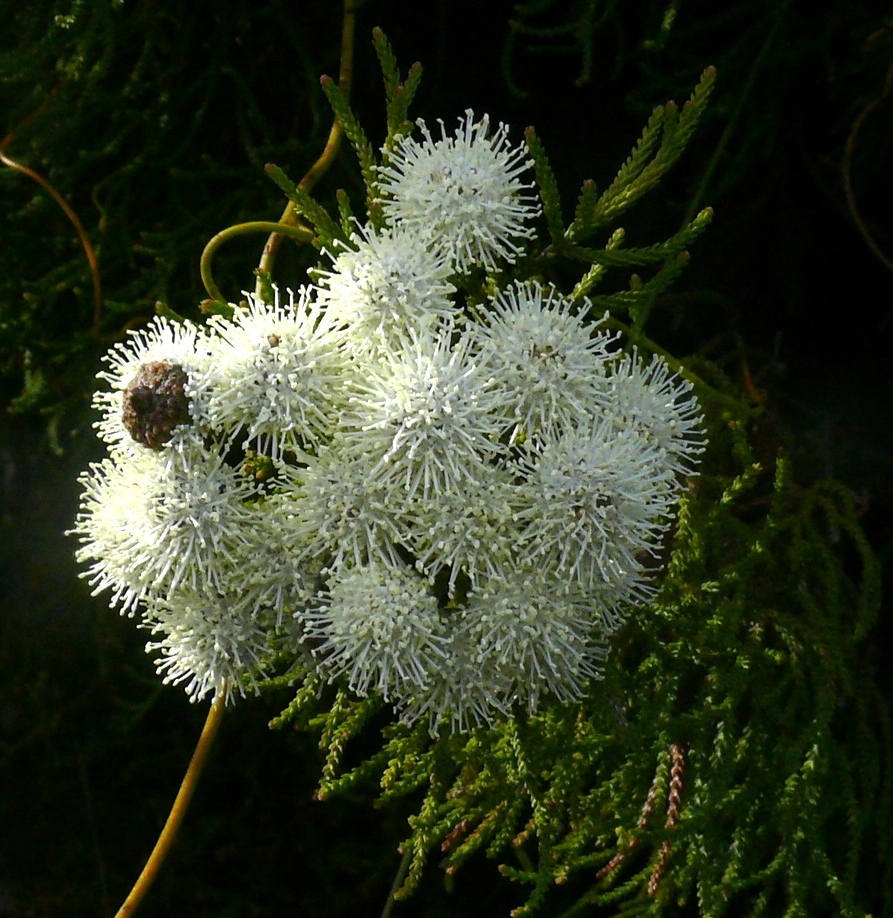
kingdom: Plantae
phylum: Tracheophyta
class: Magnoliopsida
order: Bruniales
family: Bruniaceae
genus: Brunia
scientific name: Brunia noduliflora
